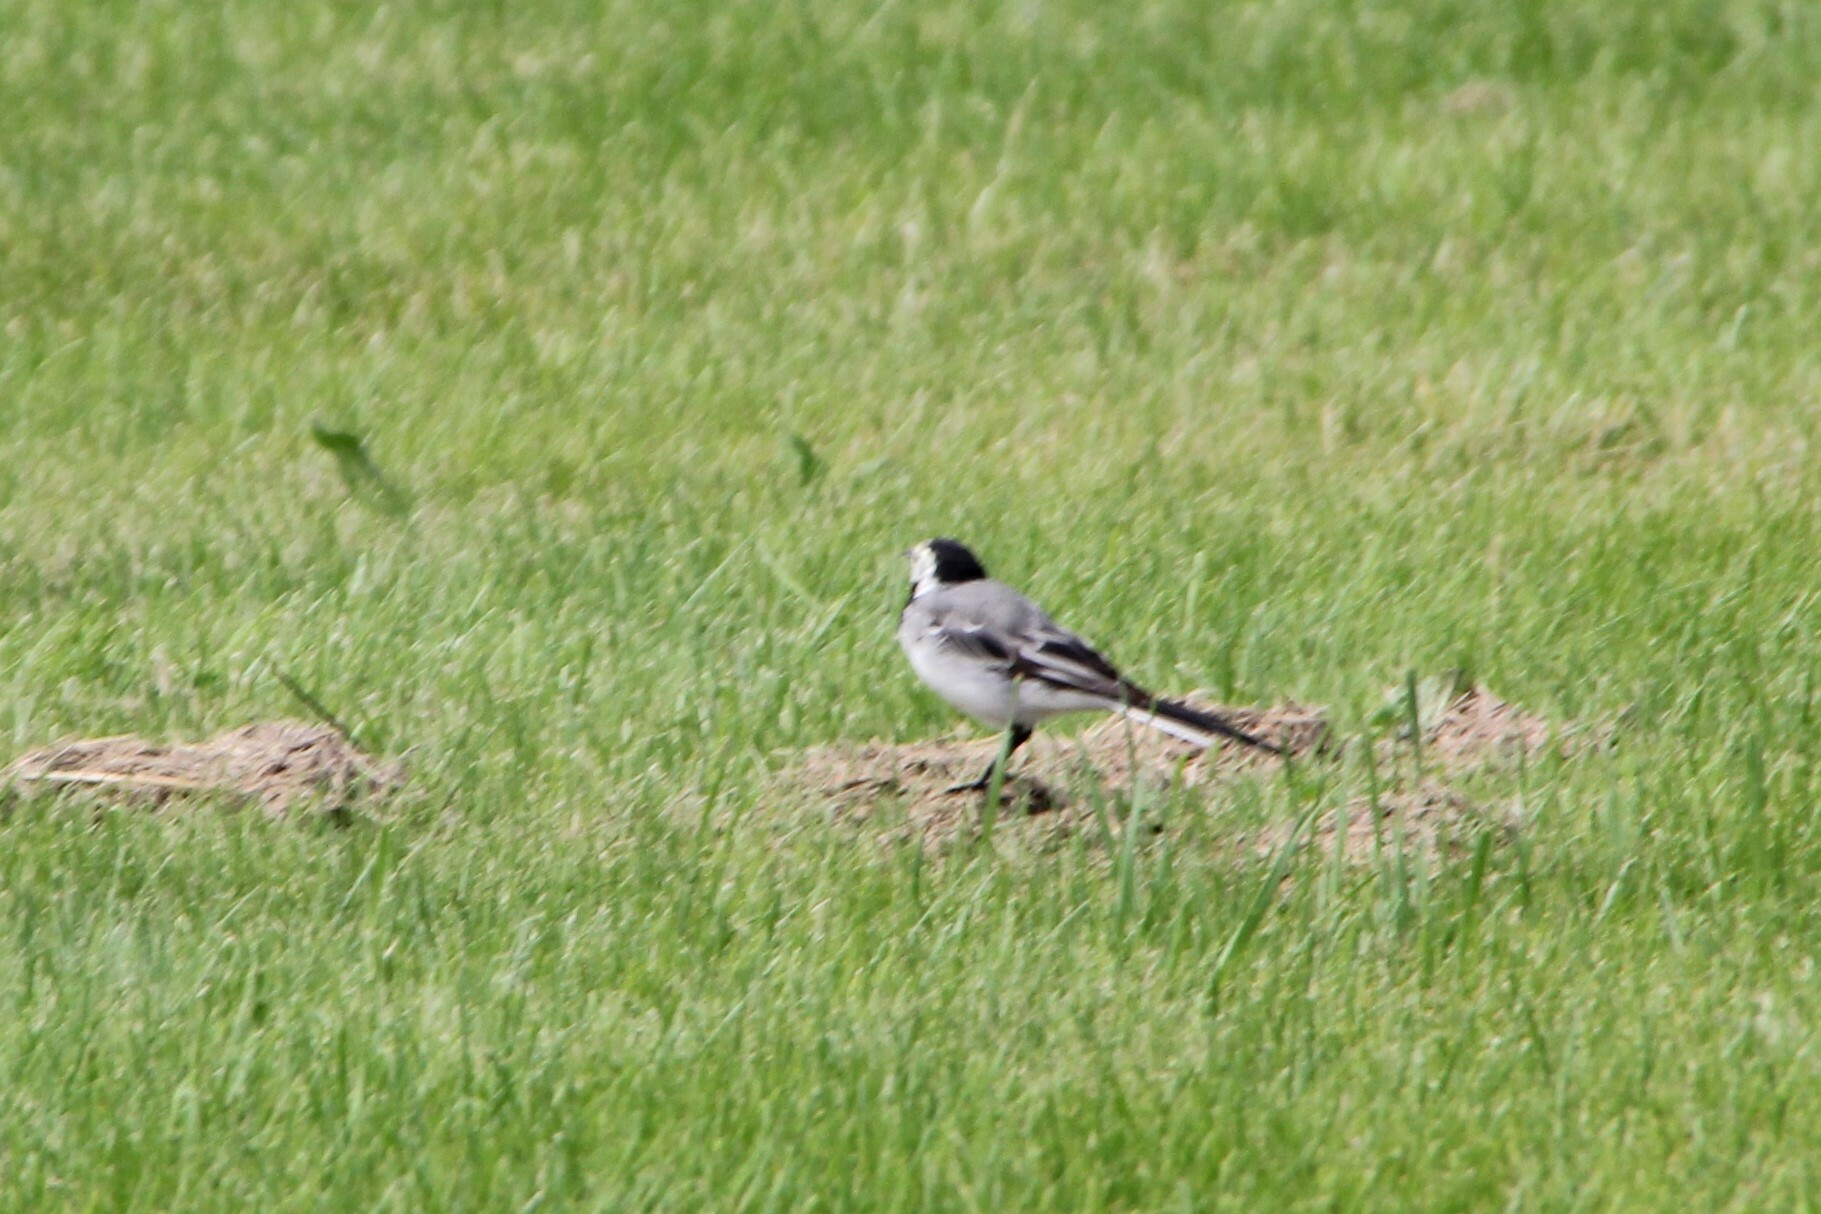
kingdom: Animalia
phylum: Chordata
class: Aves
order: Passeriformes
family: Motacillidae
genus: Motacilla
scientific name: Motacilla alba
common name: White wagtail
